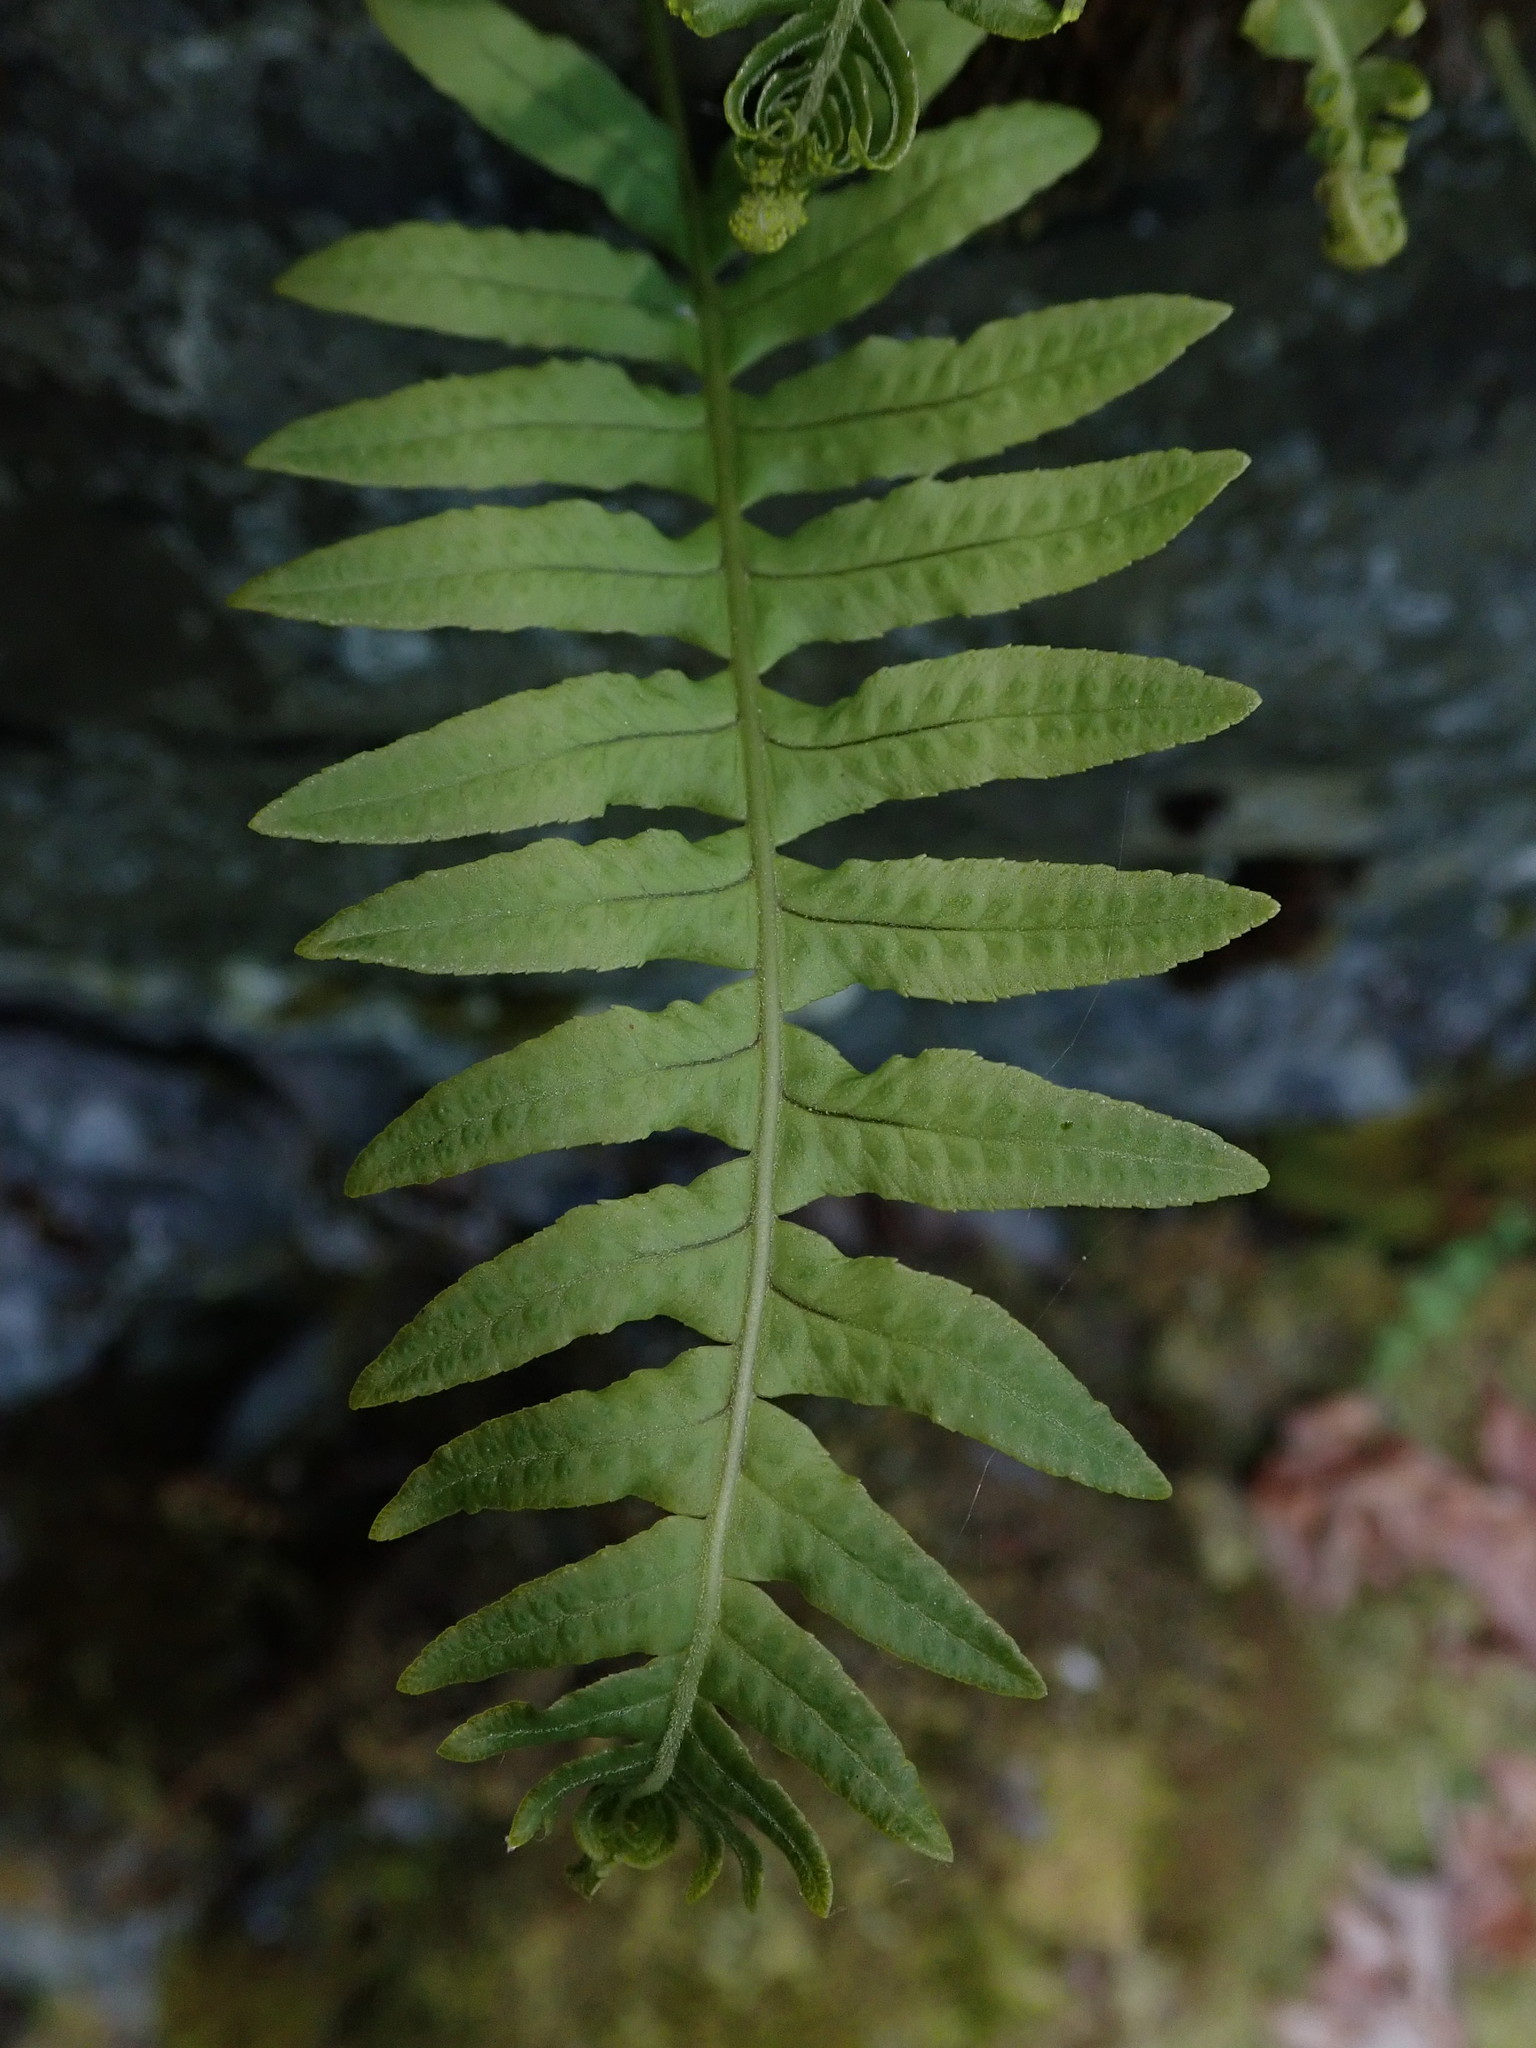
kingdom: Plantae
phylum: Tracheophyta
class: Polypodiopsida
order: Polypodiales
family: Polypodiaceae
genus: Polypodium
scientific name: Polypodium glycyrrhiza
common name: Licorice fern
